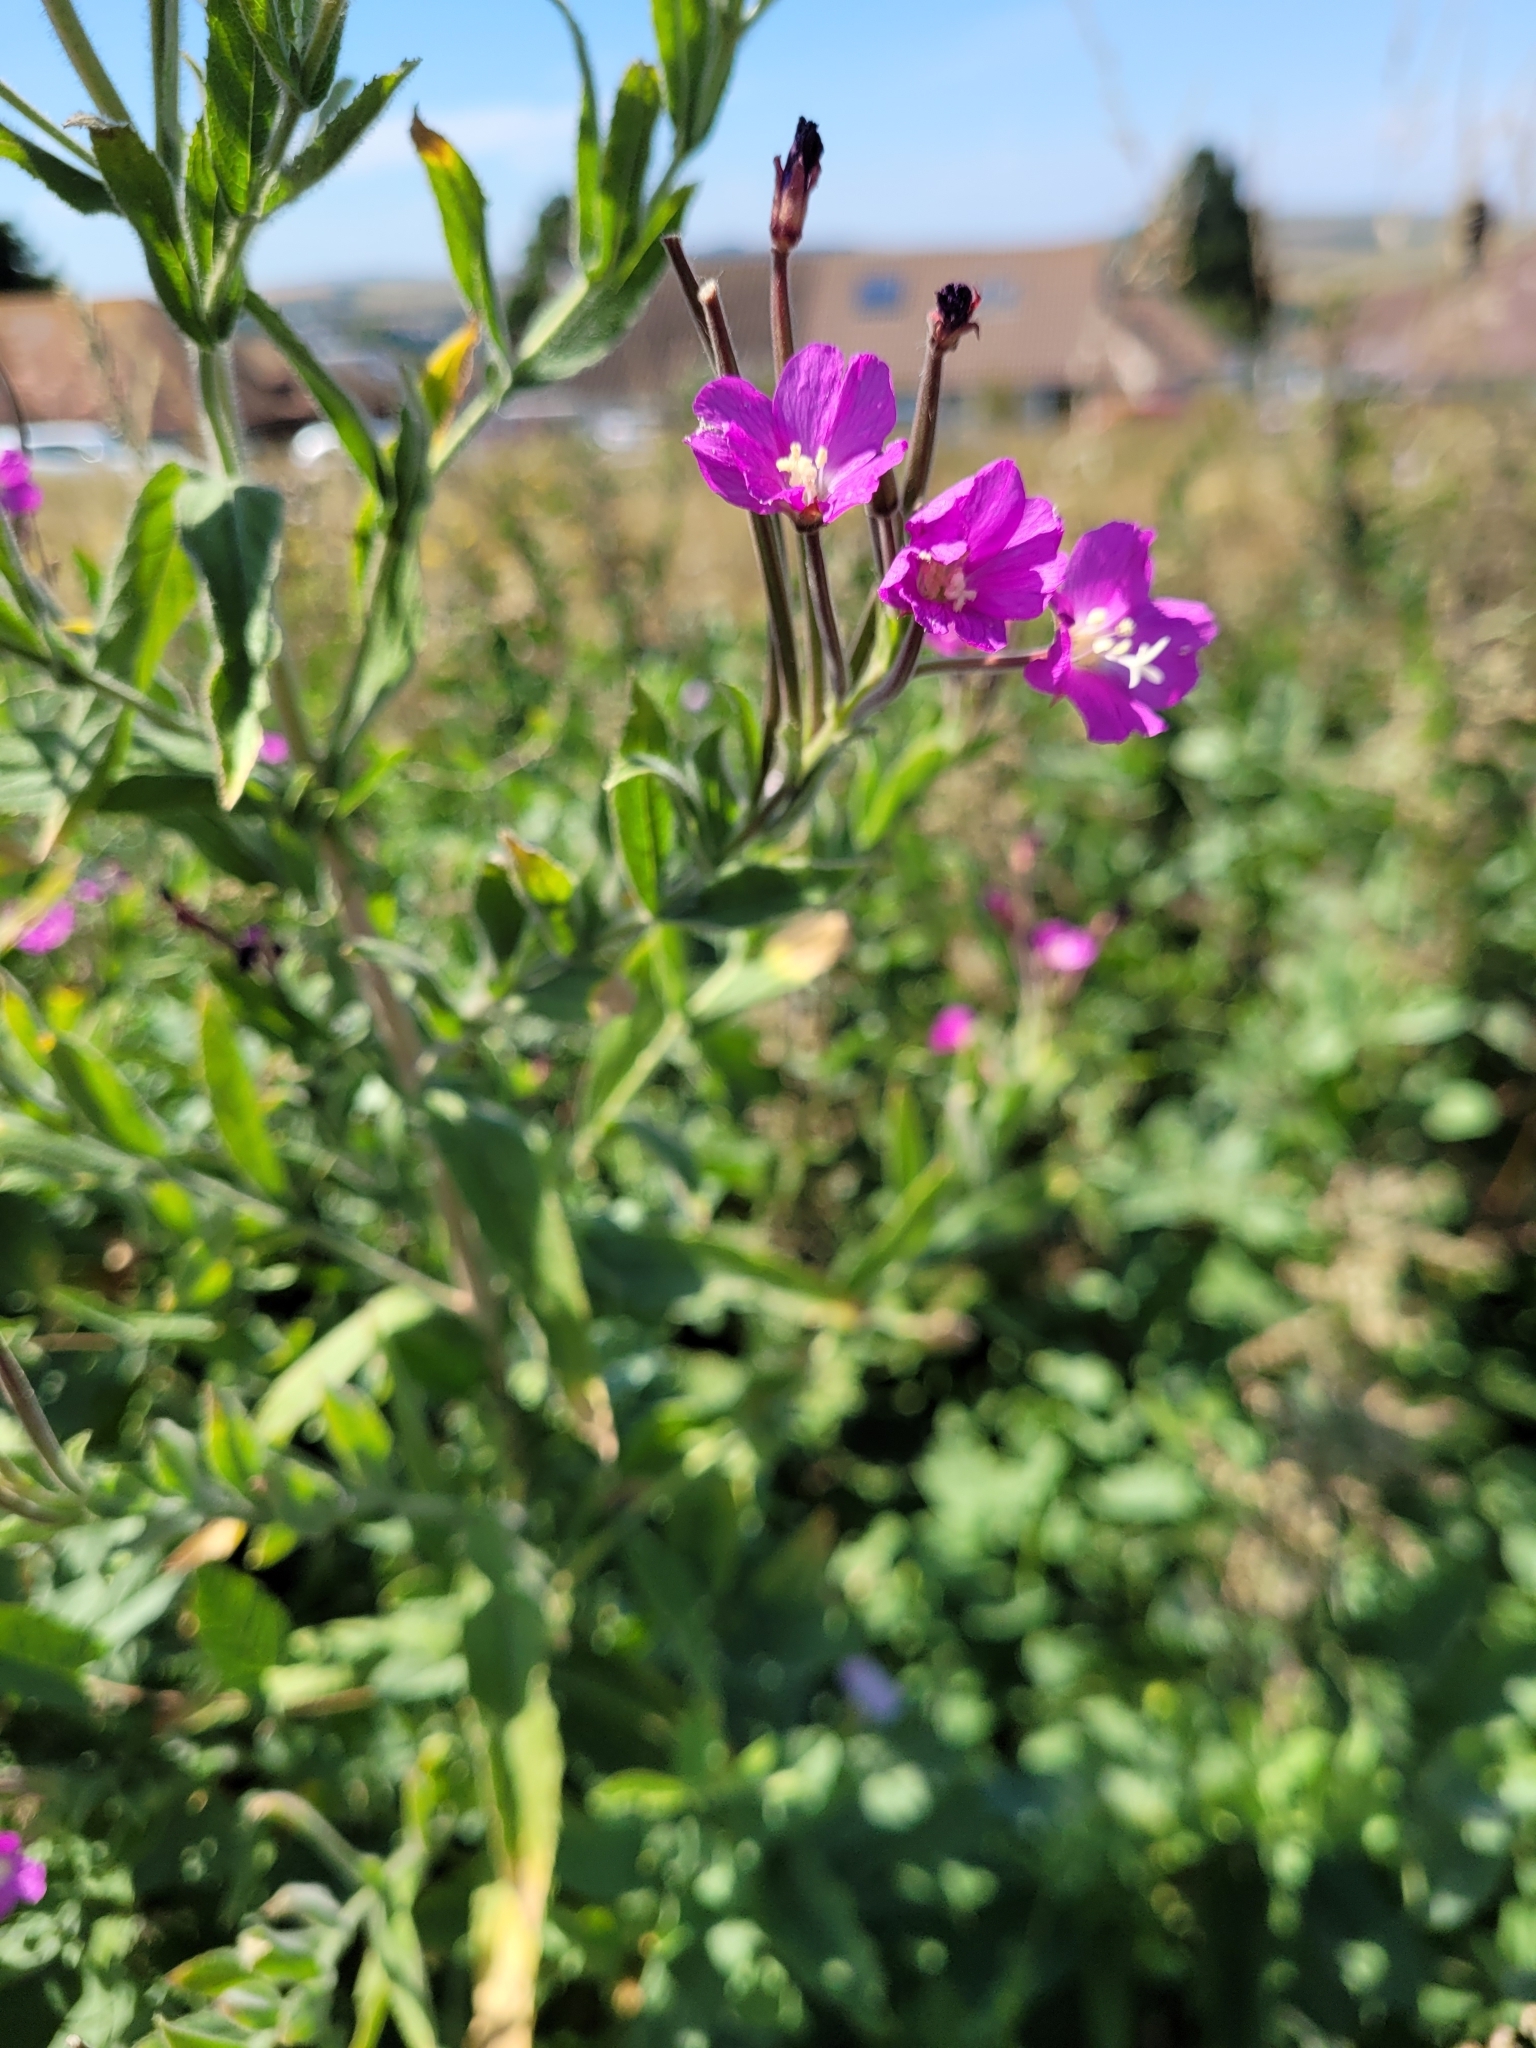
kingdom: Plantae
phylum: Tracheophyta
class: Magnoliopsida
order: Myrtales
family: Onagraceae
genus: Epilobium
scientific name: Epilobium hirsutum
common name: Great willowherb
